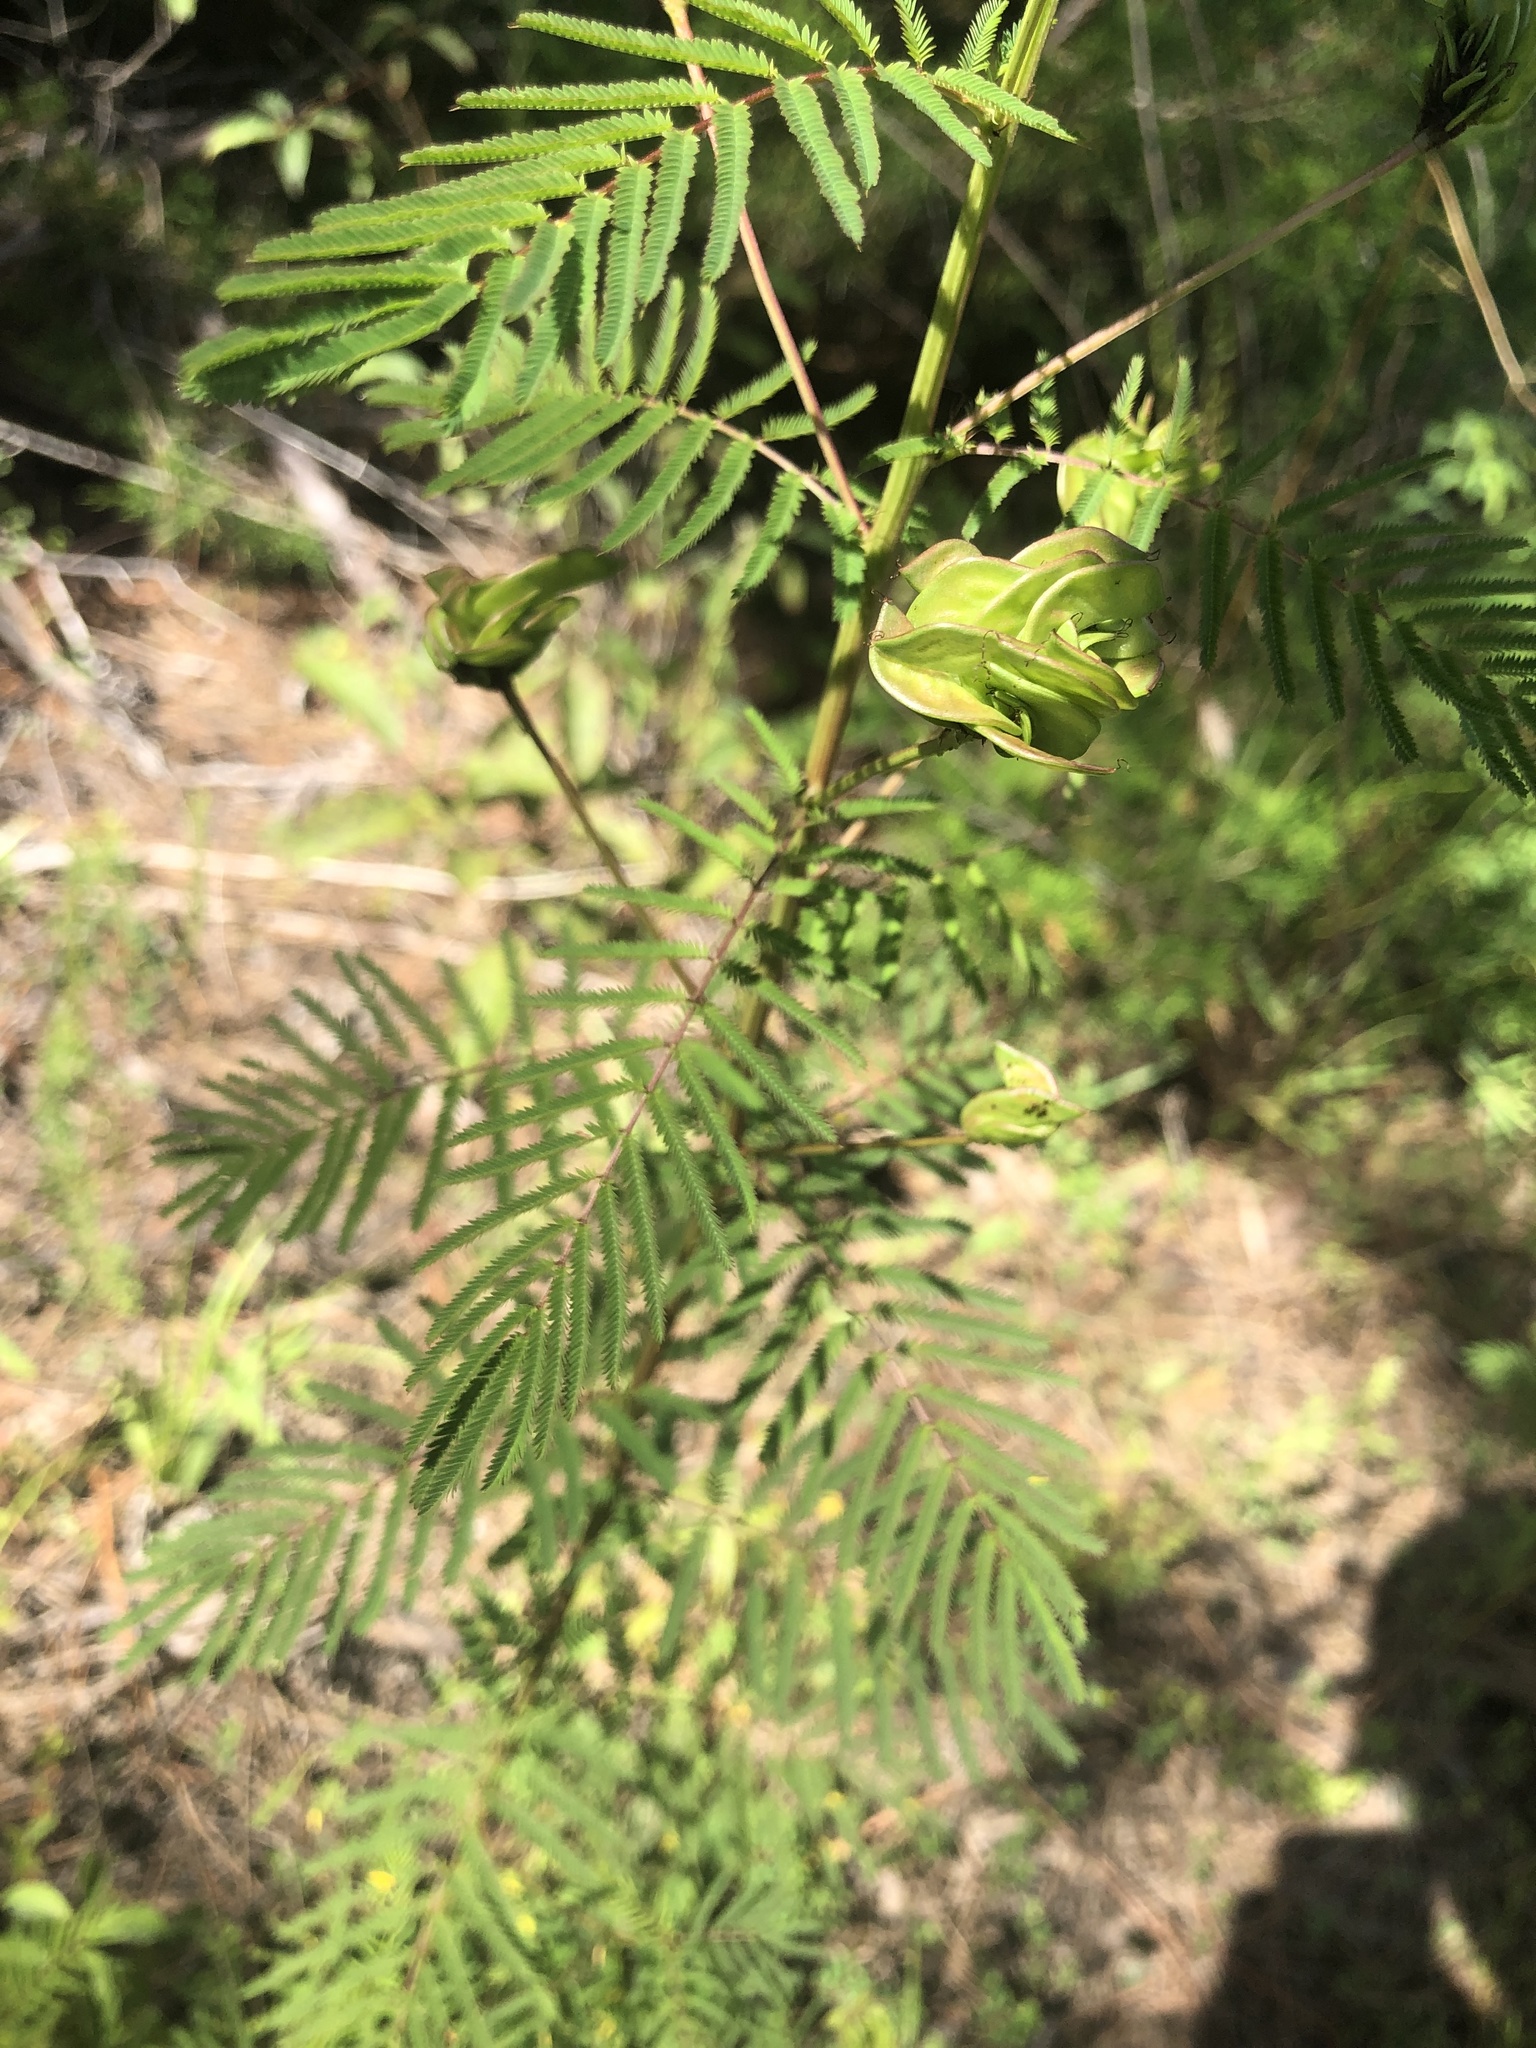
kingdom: Plantae
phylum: Tracheophyta
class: Magnoliopsida
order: Fabales
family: Fabaceae
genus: Desmanthus
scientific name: Desmanthus illinoensis
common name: Illinois bundle-flower
